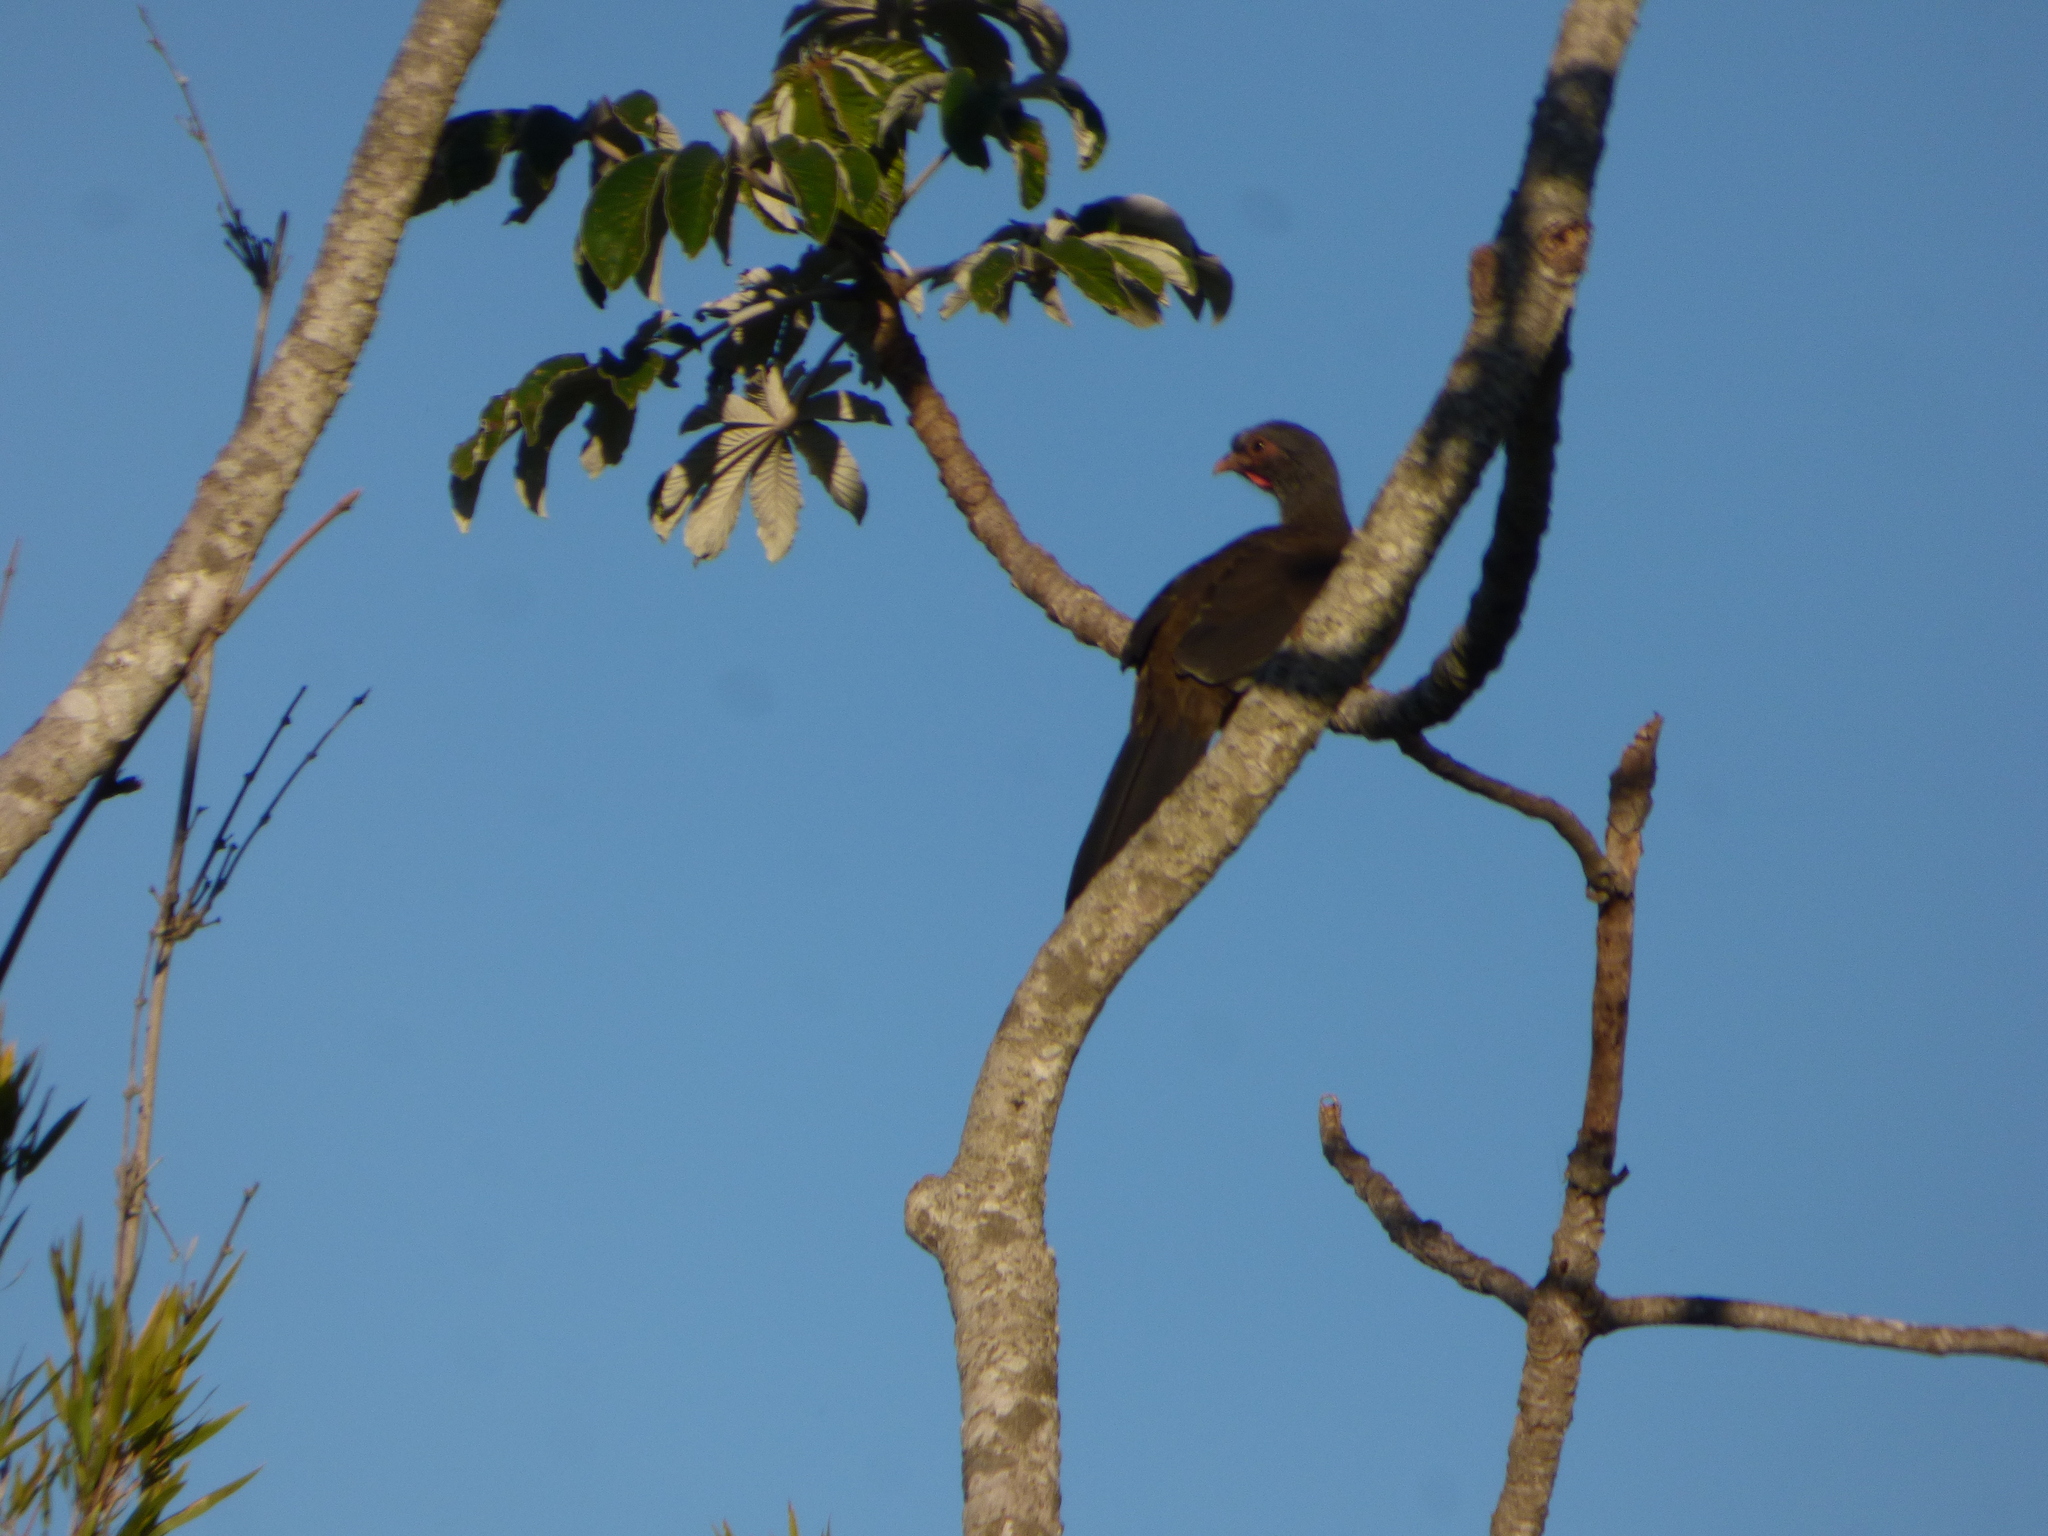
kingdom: Animalia
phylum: Chordata
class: Aves
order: Galliformes
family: Cracidae
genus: Ortalis
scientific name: Ortalis canicollis
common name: Chaco chachalaca
